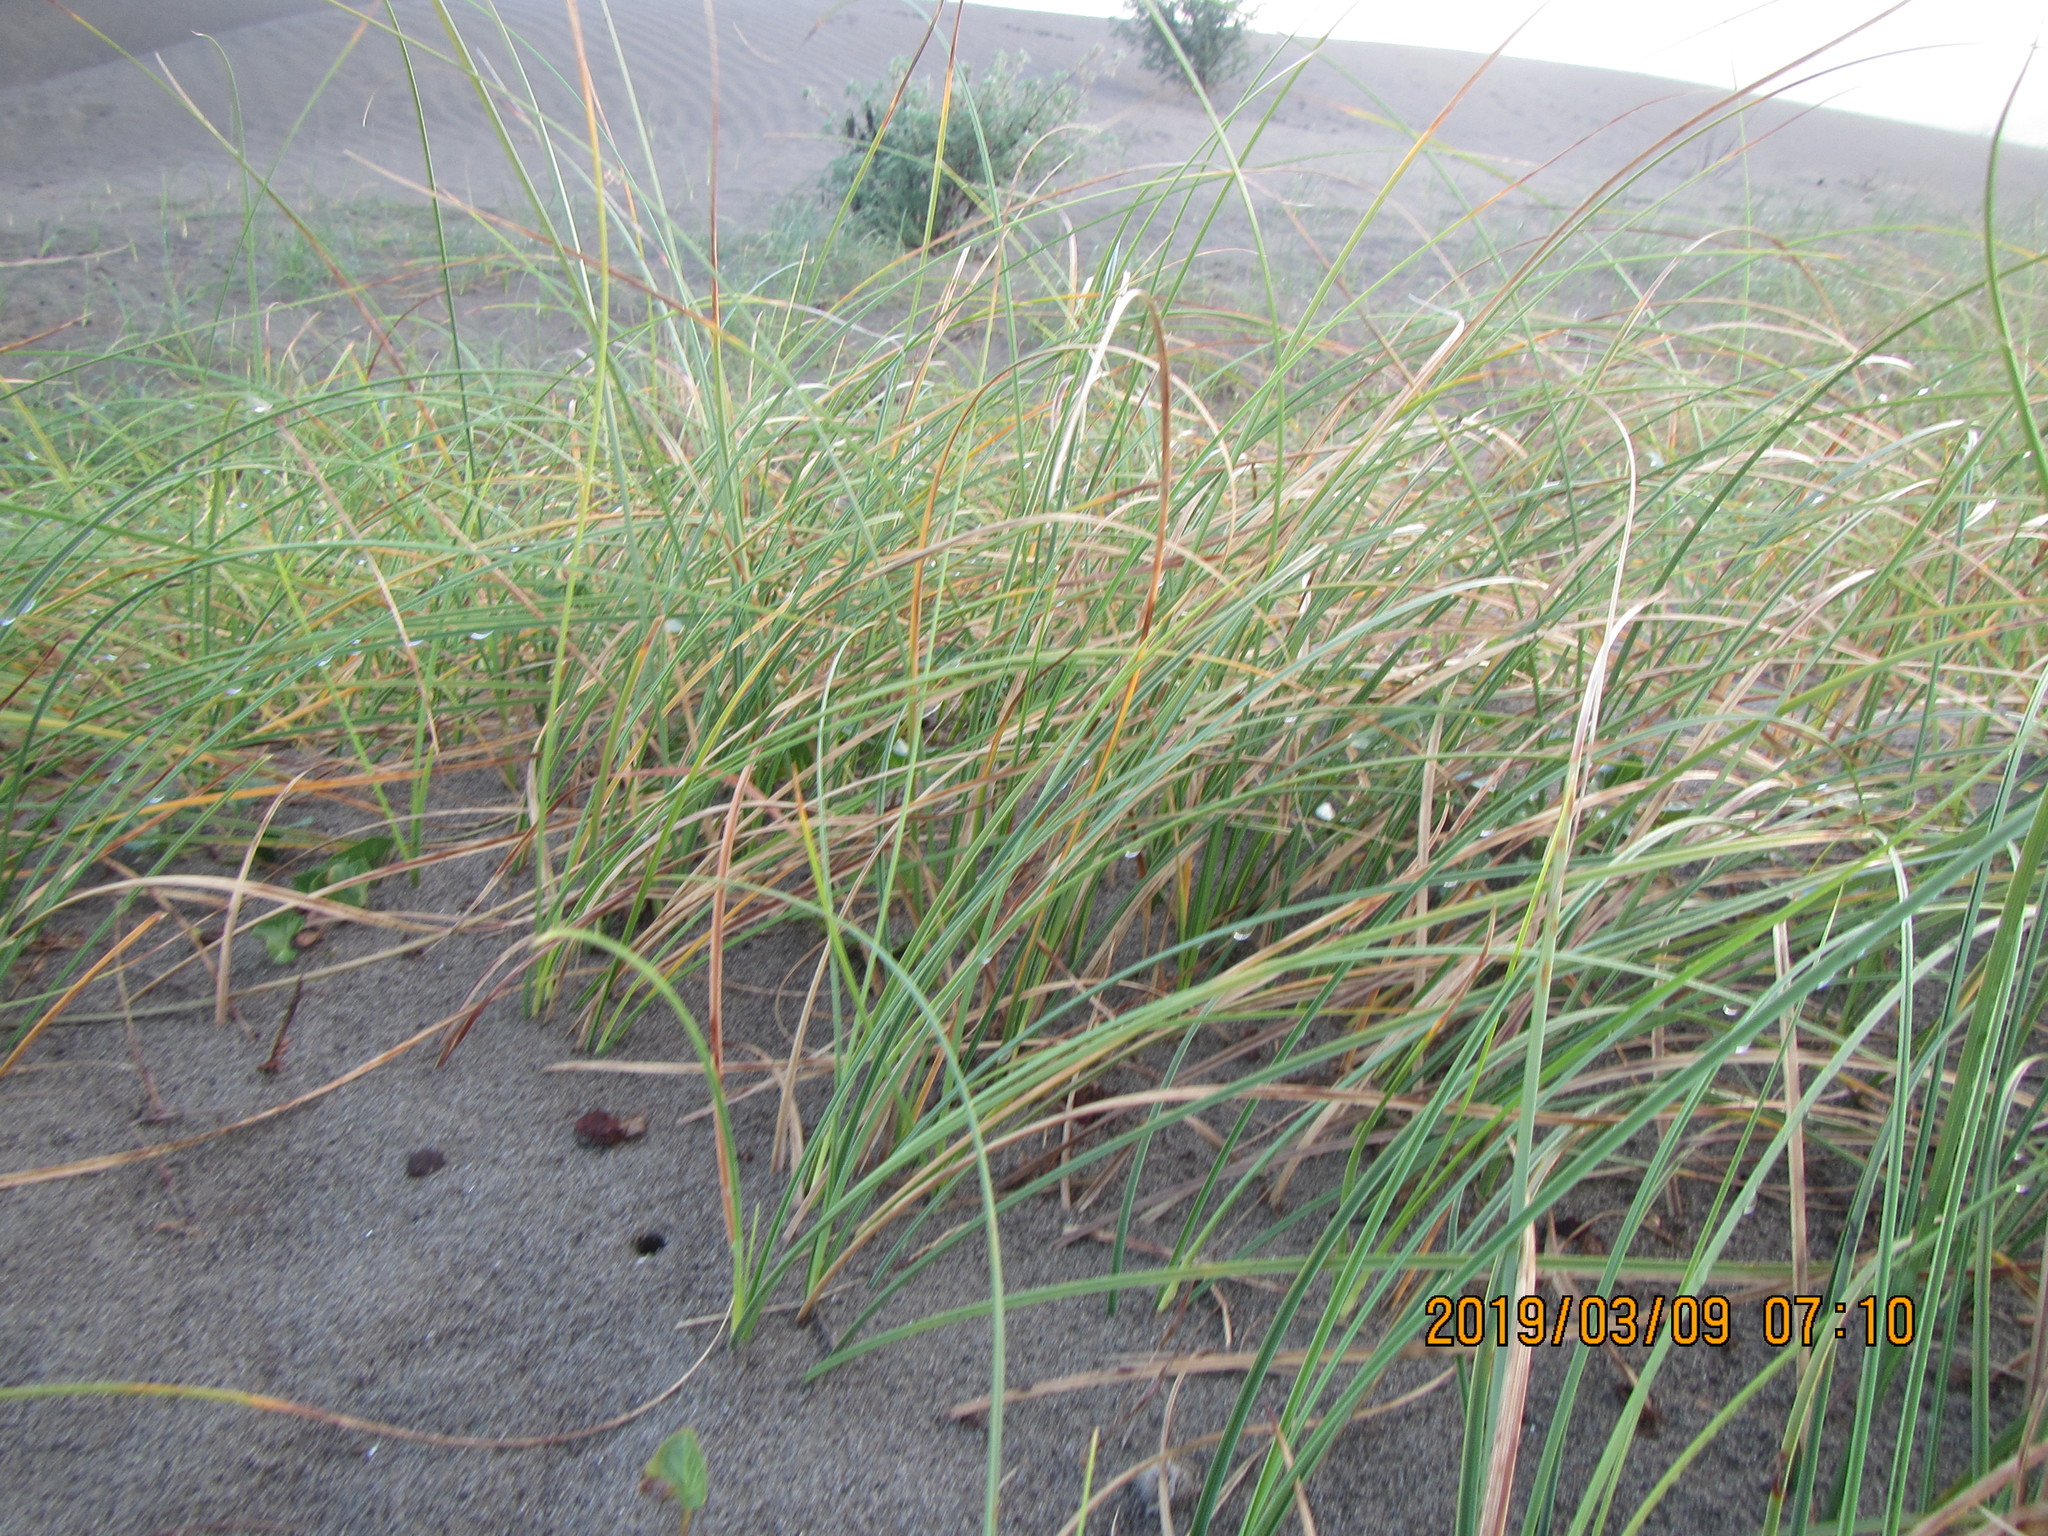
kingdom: Plantae
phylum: Tracheophyta
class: Liliopsida
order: Poales
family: Cyperaceae
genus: Carex
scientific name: Carex pumila
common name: Dwarf sedge
